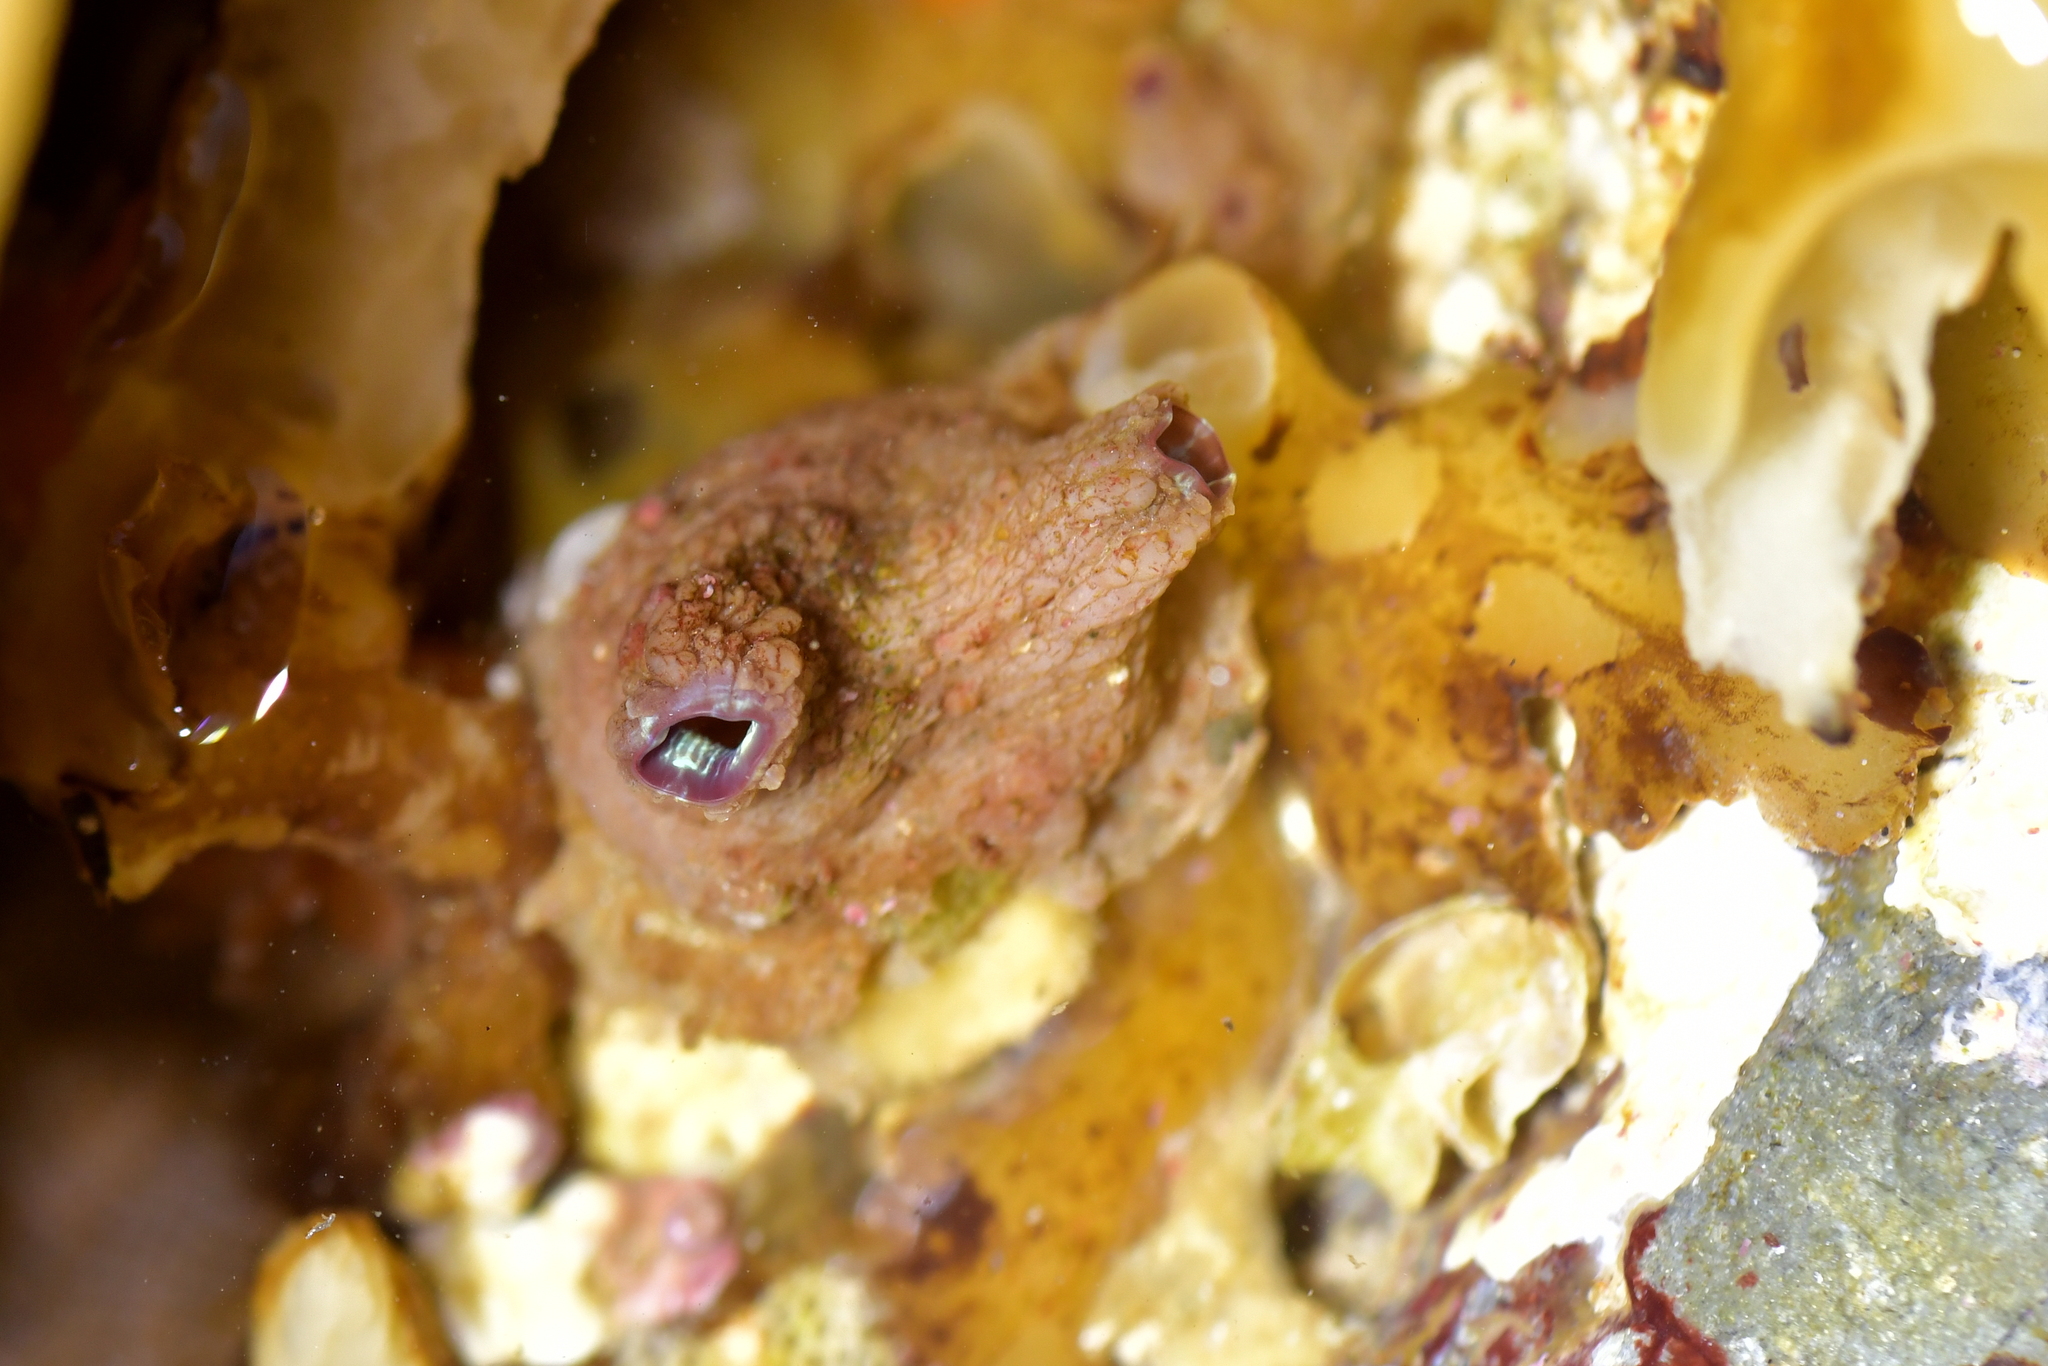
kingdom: Animalia
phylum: Chordata
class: Ascidiacea
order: Stolidobranchia
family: Styelidae
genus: Cnemidocarpa
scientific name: Cnemidocarpa nisiotis
